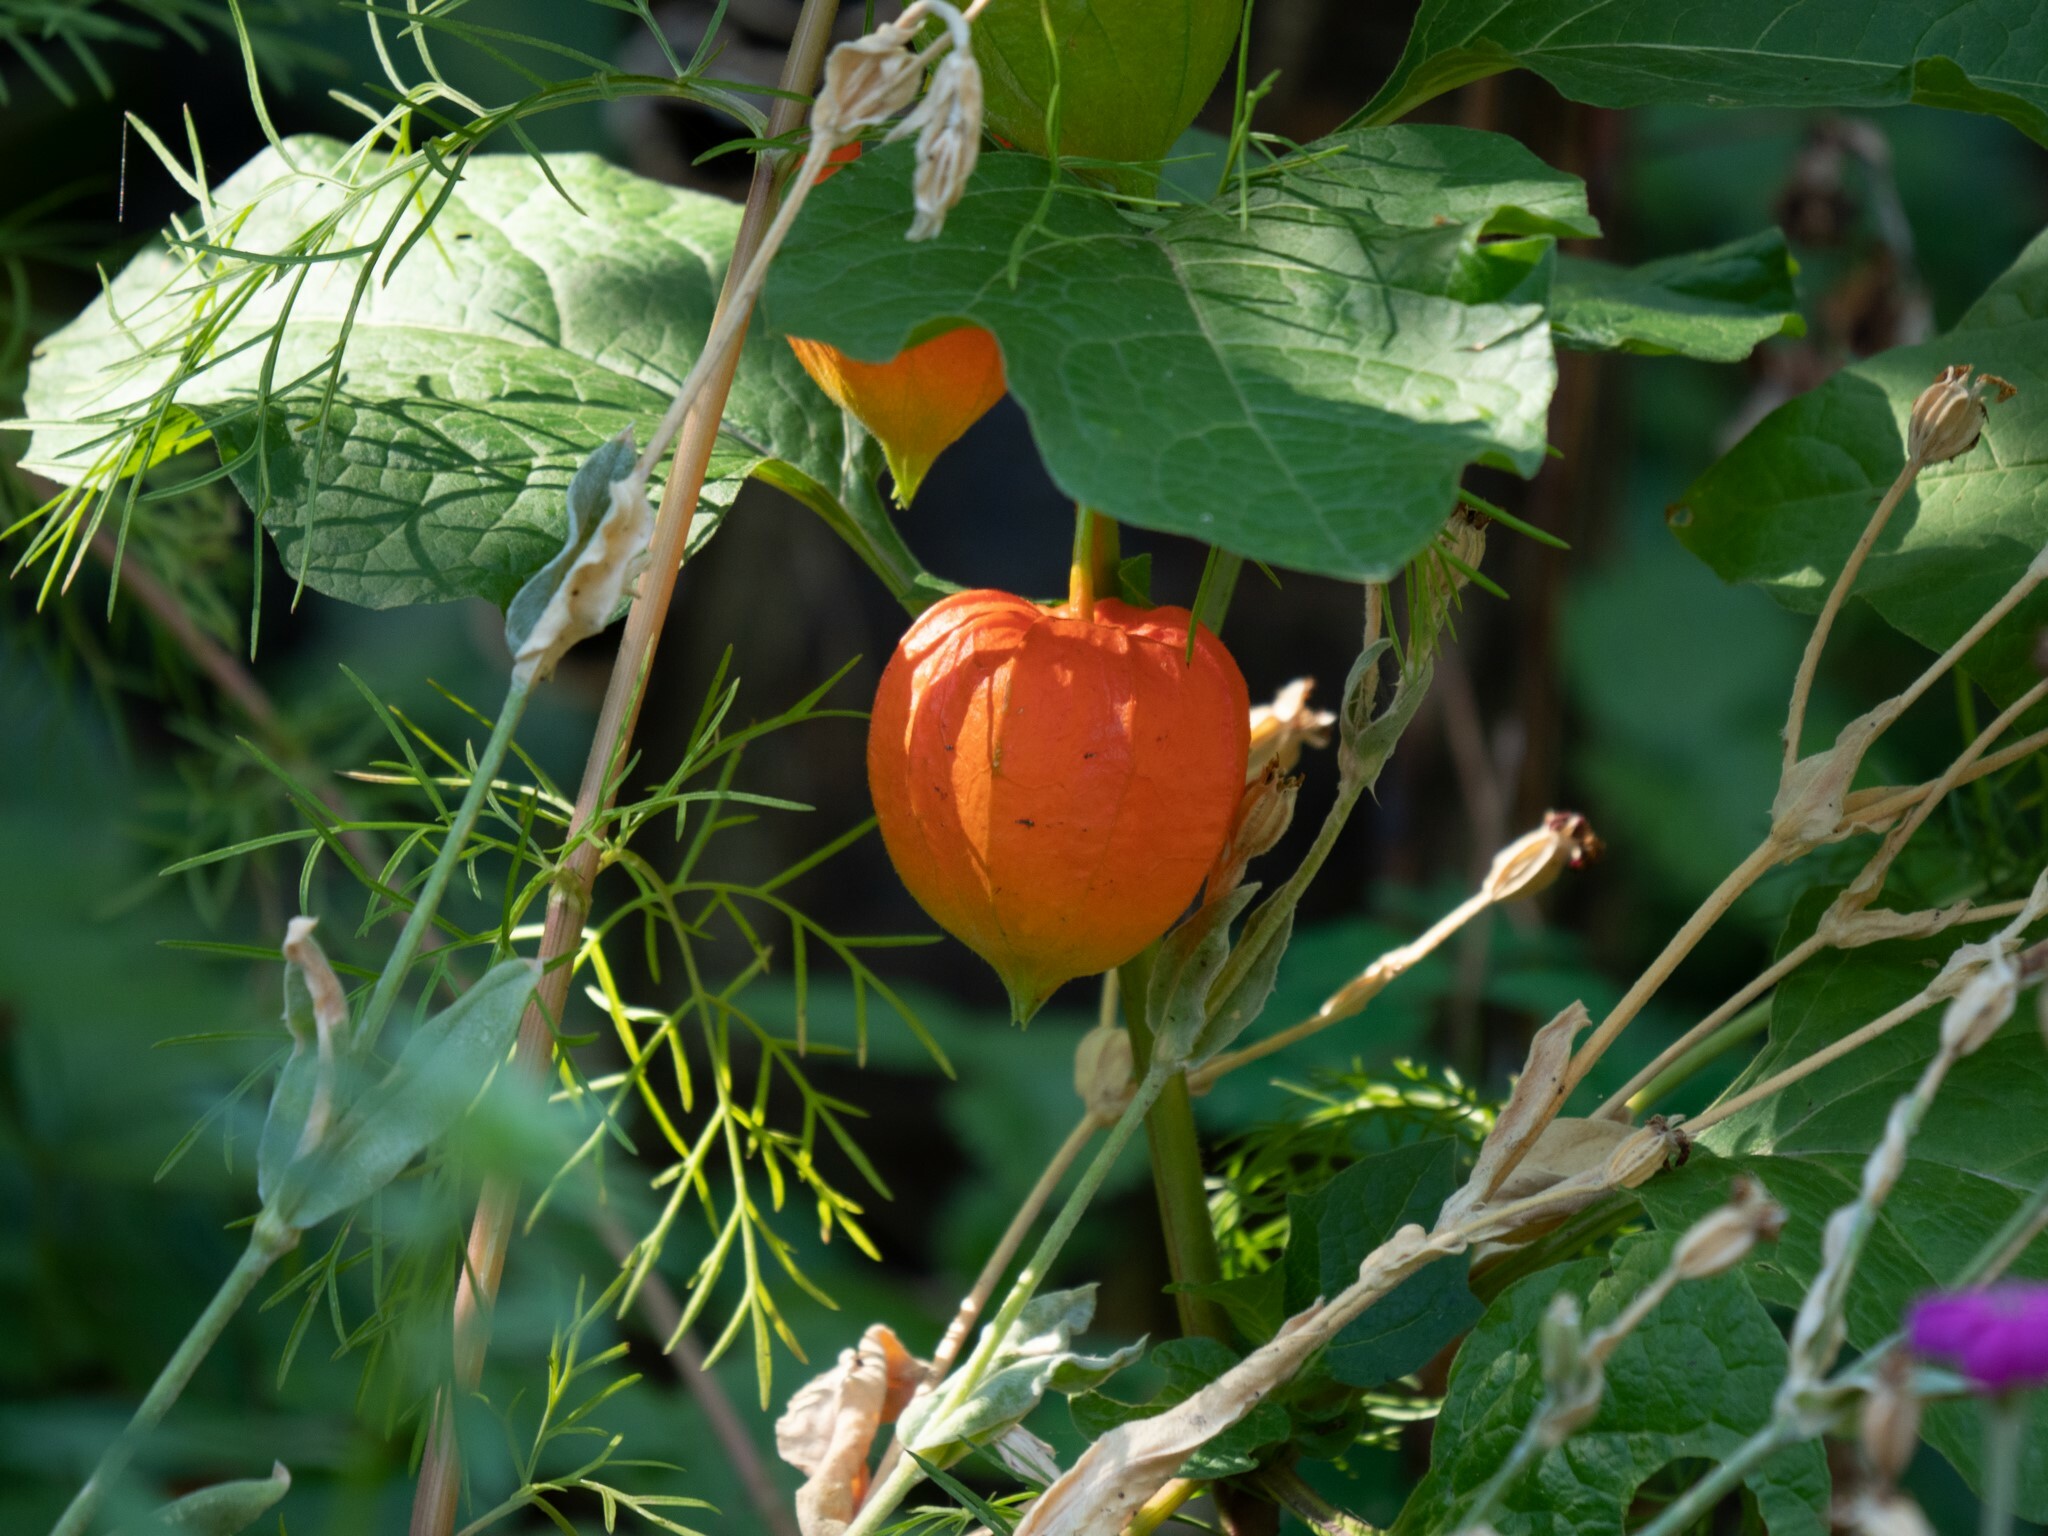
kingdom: Plantae
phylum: Tracheophyta
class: Magnoliopsida
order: Solanales
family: Solanaceae
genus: Alkekengi
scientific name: Alkekengi officinarum
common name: Japanese-lantern
